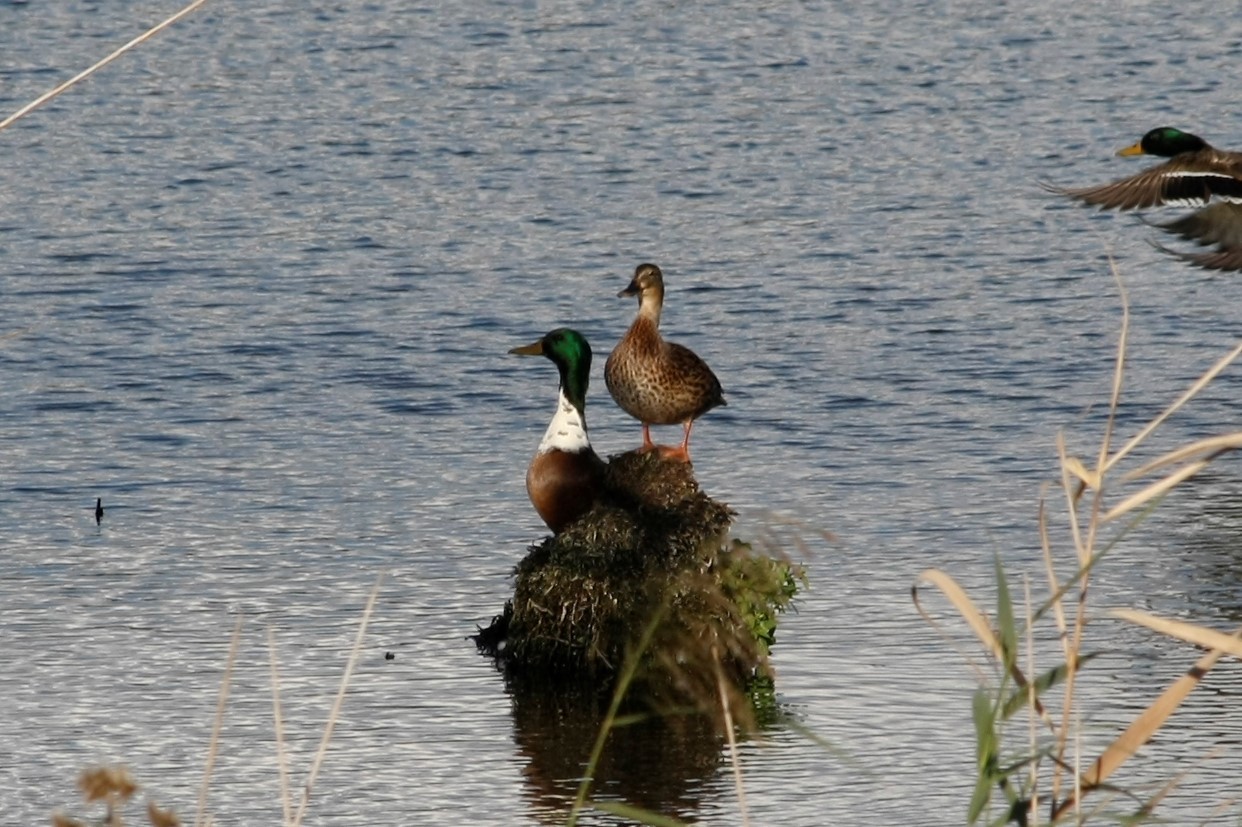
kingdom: Animalia
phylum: Chordata
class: Aves
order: Anseriformes
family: Anatidae
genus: Anas
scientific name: Anas platyrhynchos
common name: Mallard
